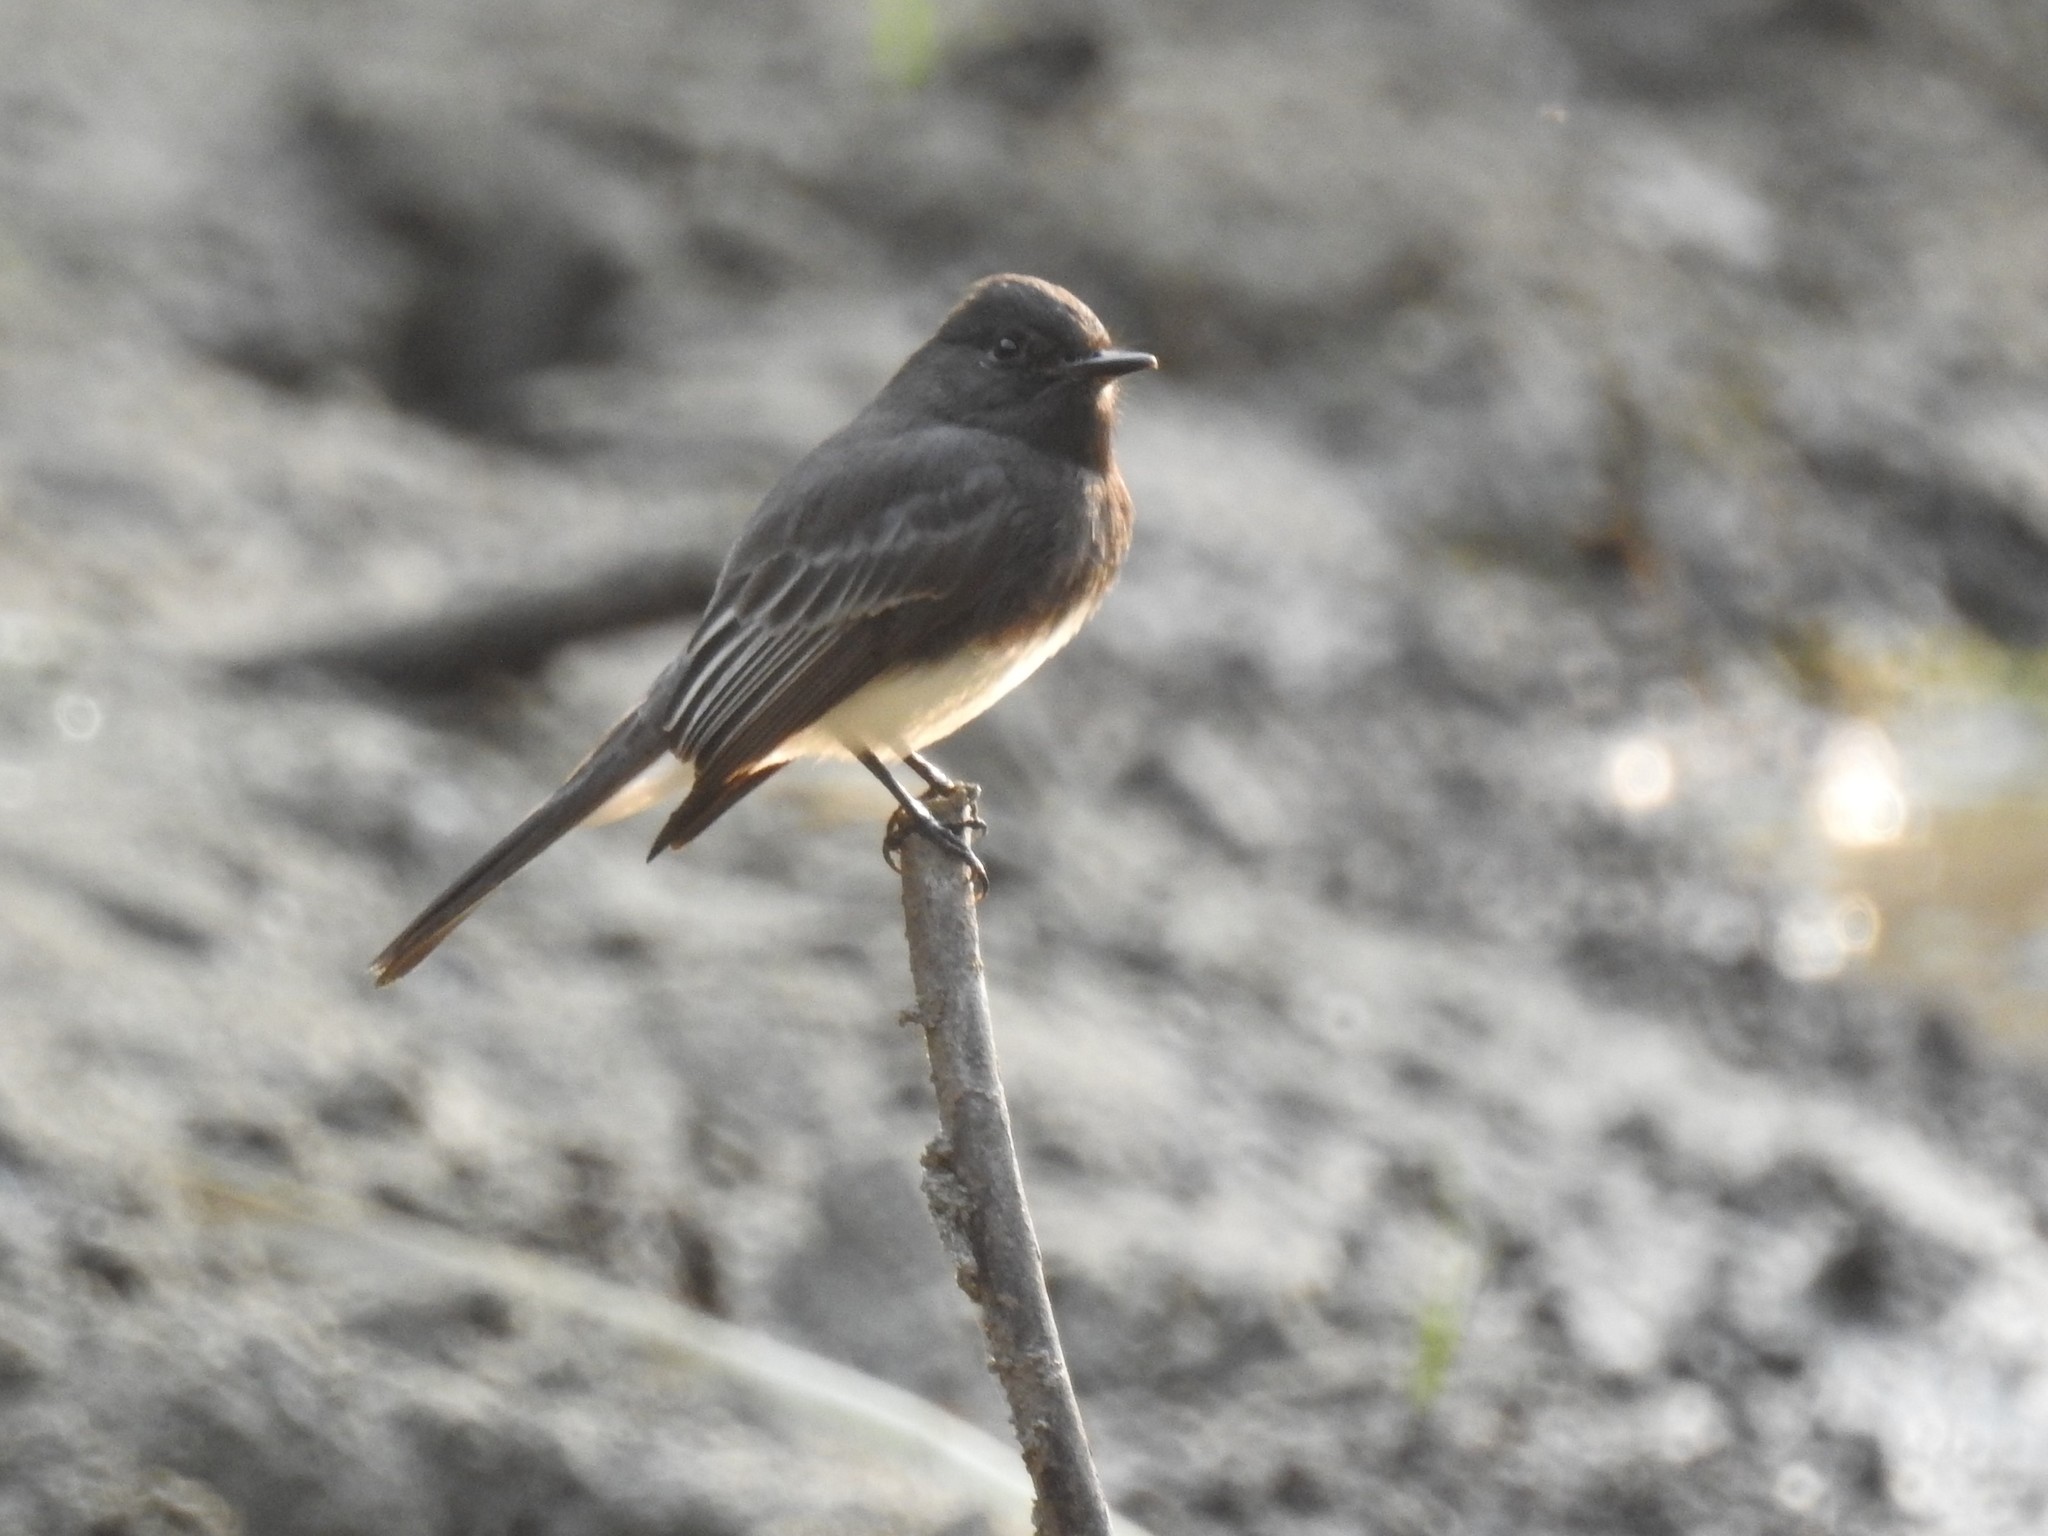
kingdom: Animalia
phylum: Chordata
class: Aves
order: Passeriformes
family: Tyrannidae
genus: Sayornis
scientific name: Sayornis nigricans
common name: Black phoebe
